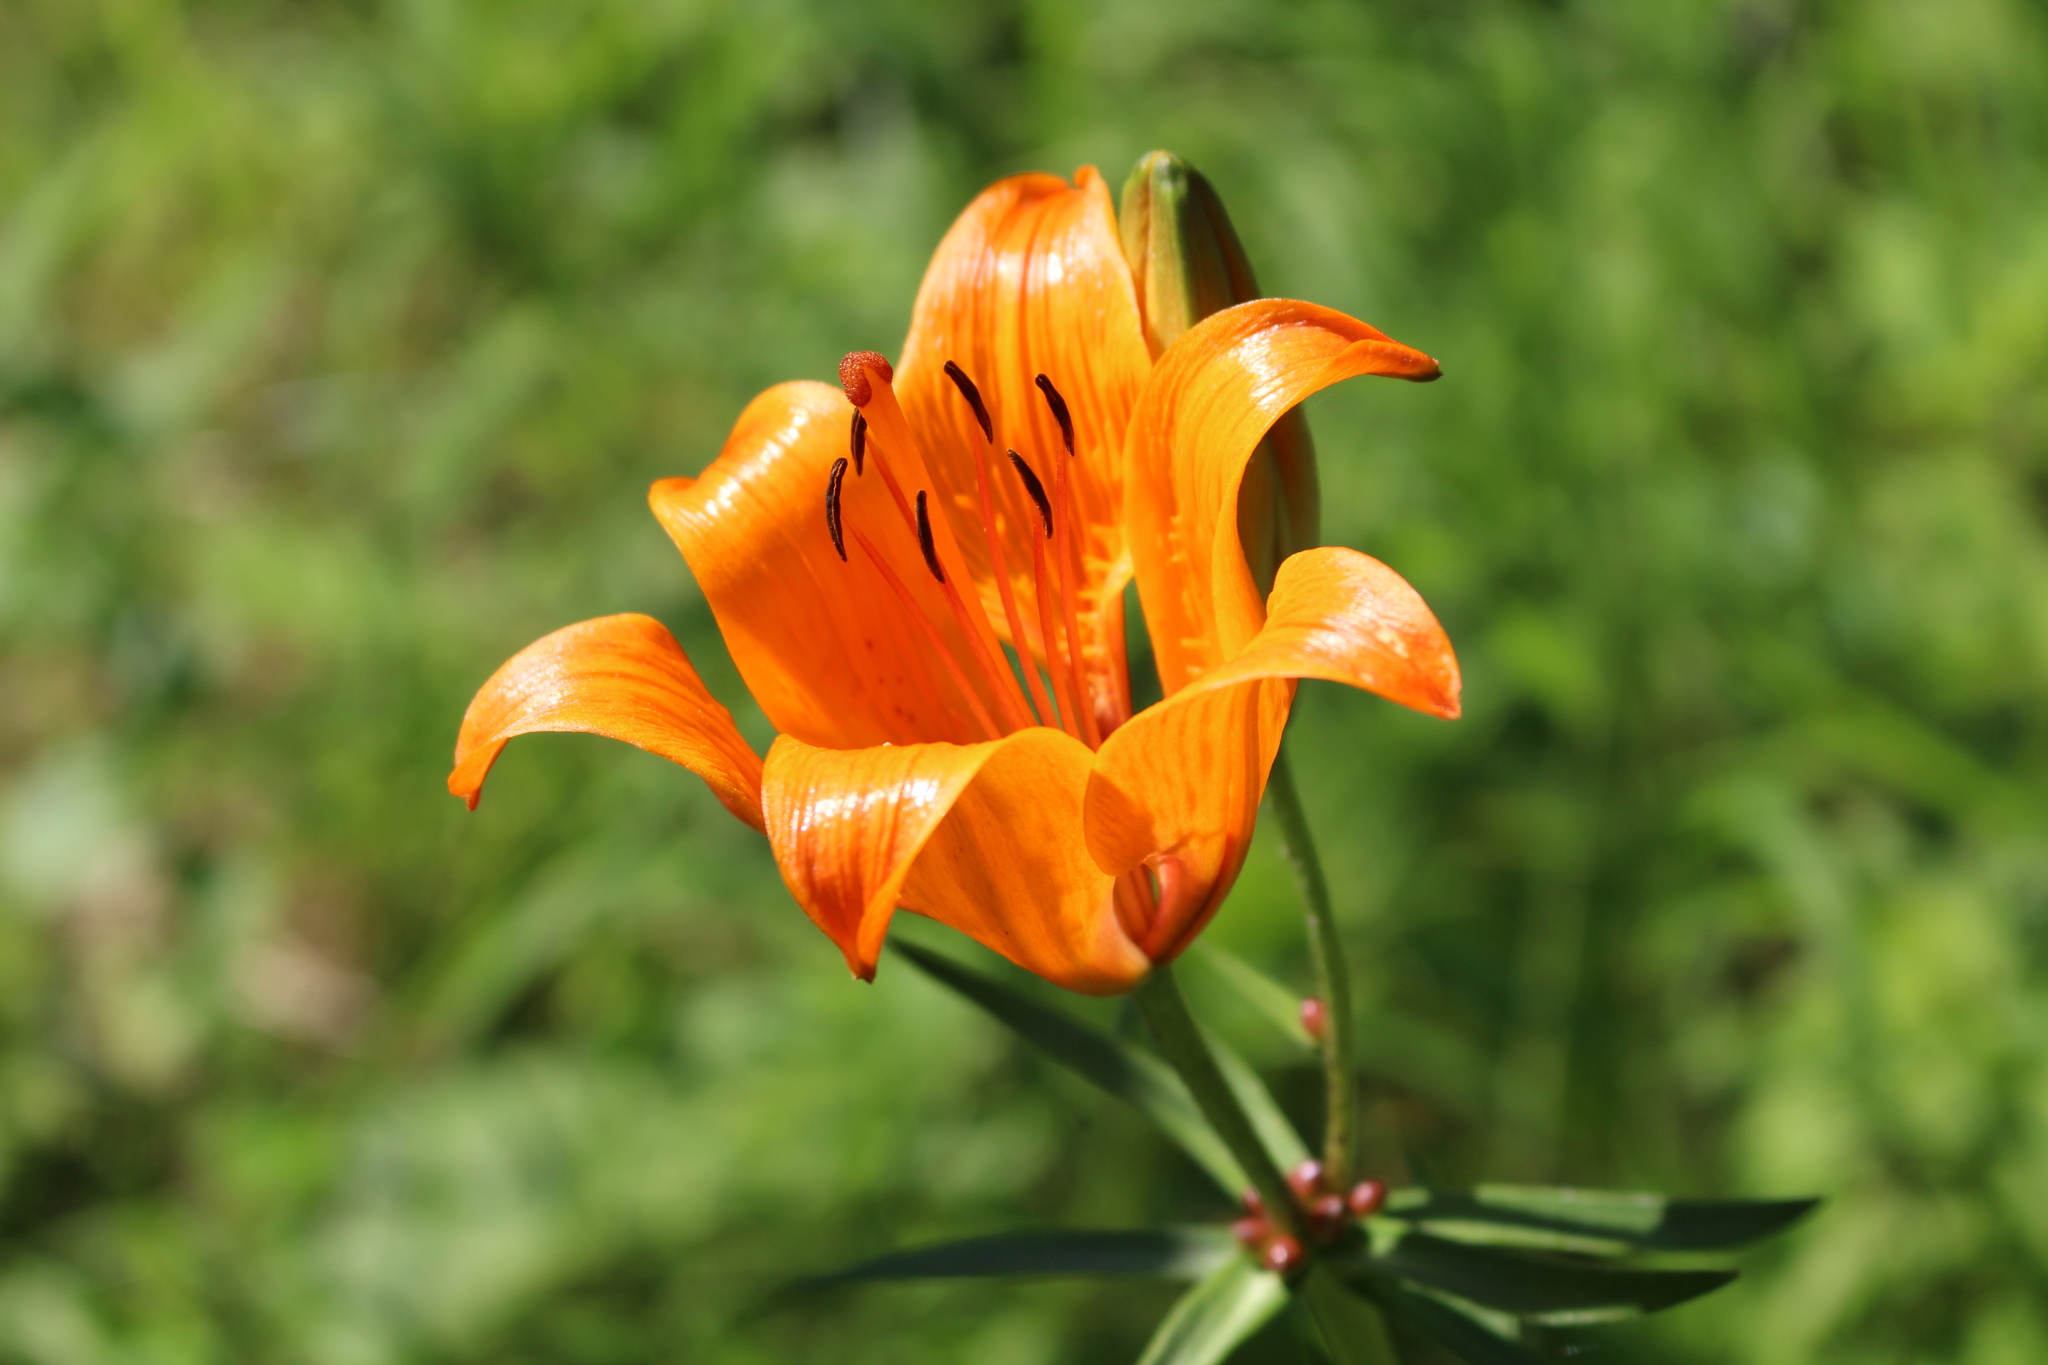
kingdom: Plantae
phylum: Tracheophyta
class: Liliopsida
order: Liliales
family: Liliaceae
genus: Lilium
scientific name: Lilium bulbiferum
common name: Orange lily
